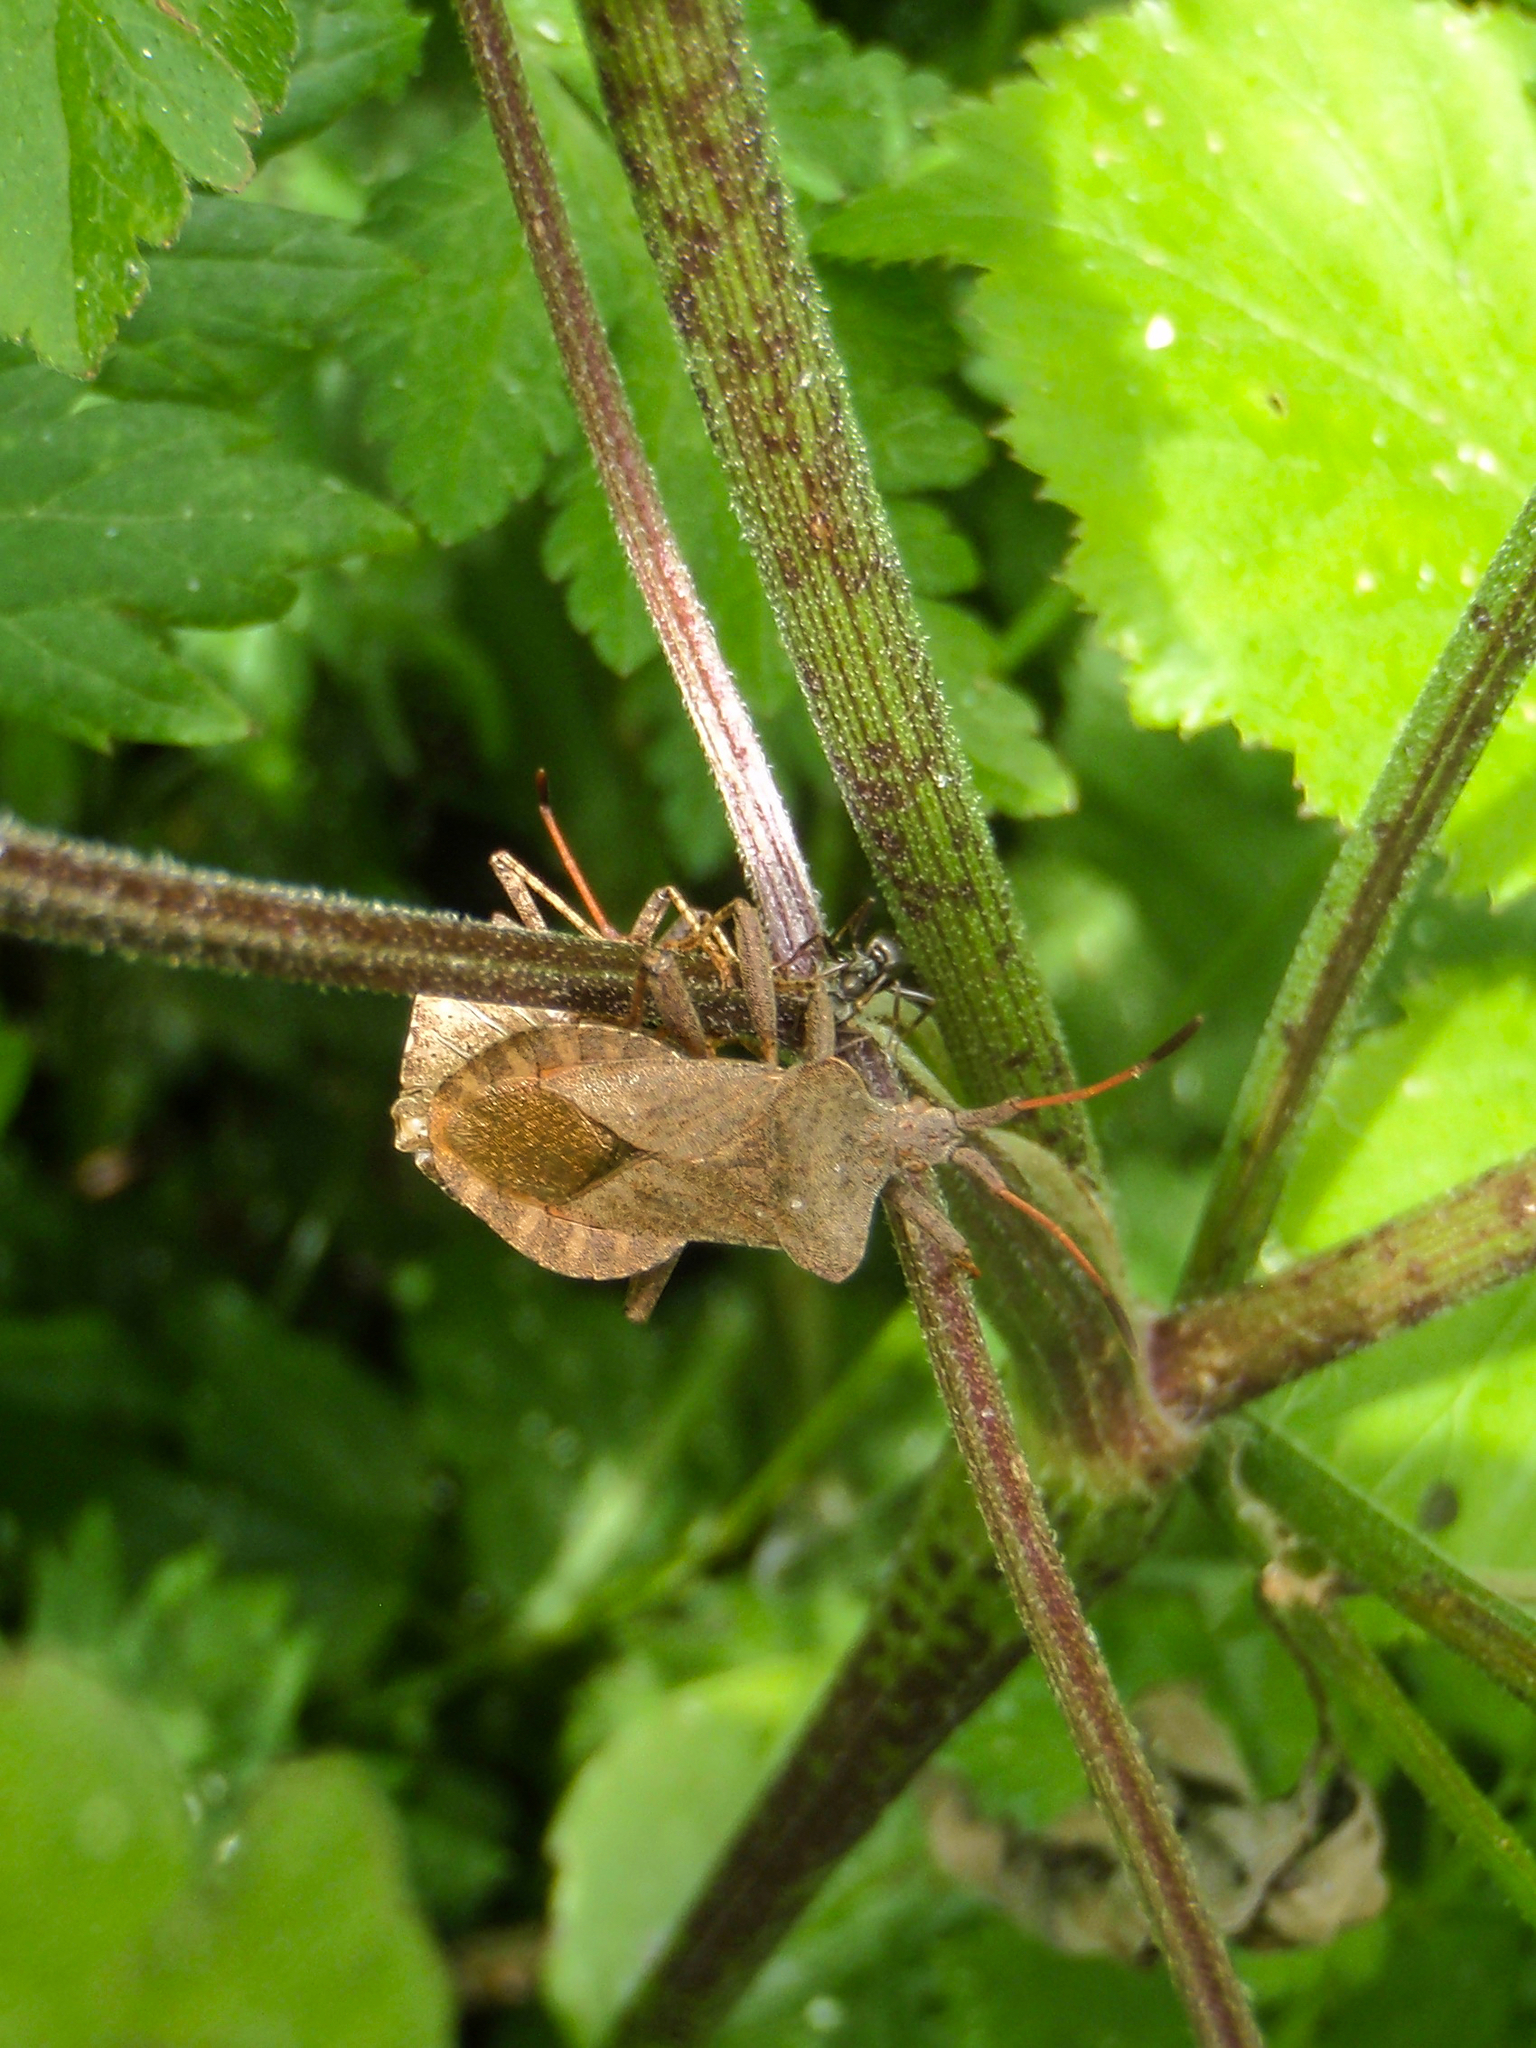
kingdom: Animalia
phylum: Arthropoda
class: Insecta
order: Hemiptera
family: Coreidae
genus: Coreus
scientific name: Coreus marginatus
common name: Dock bug
